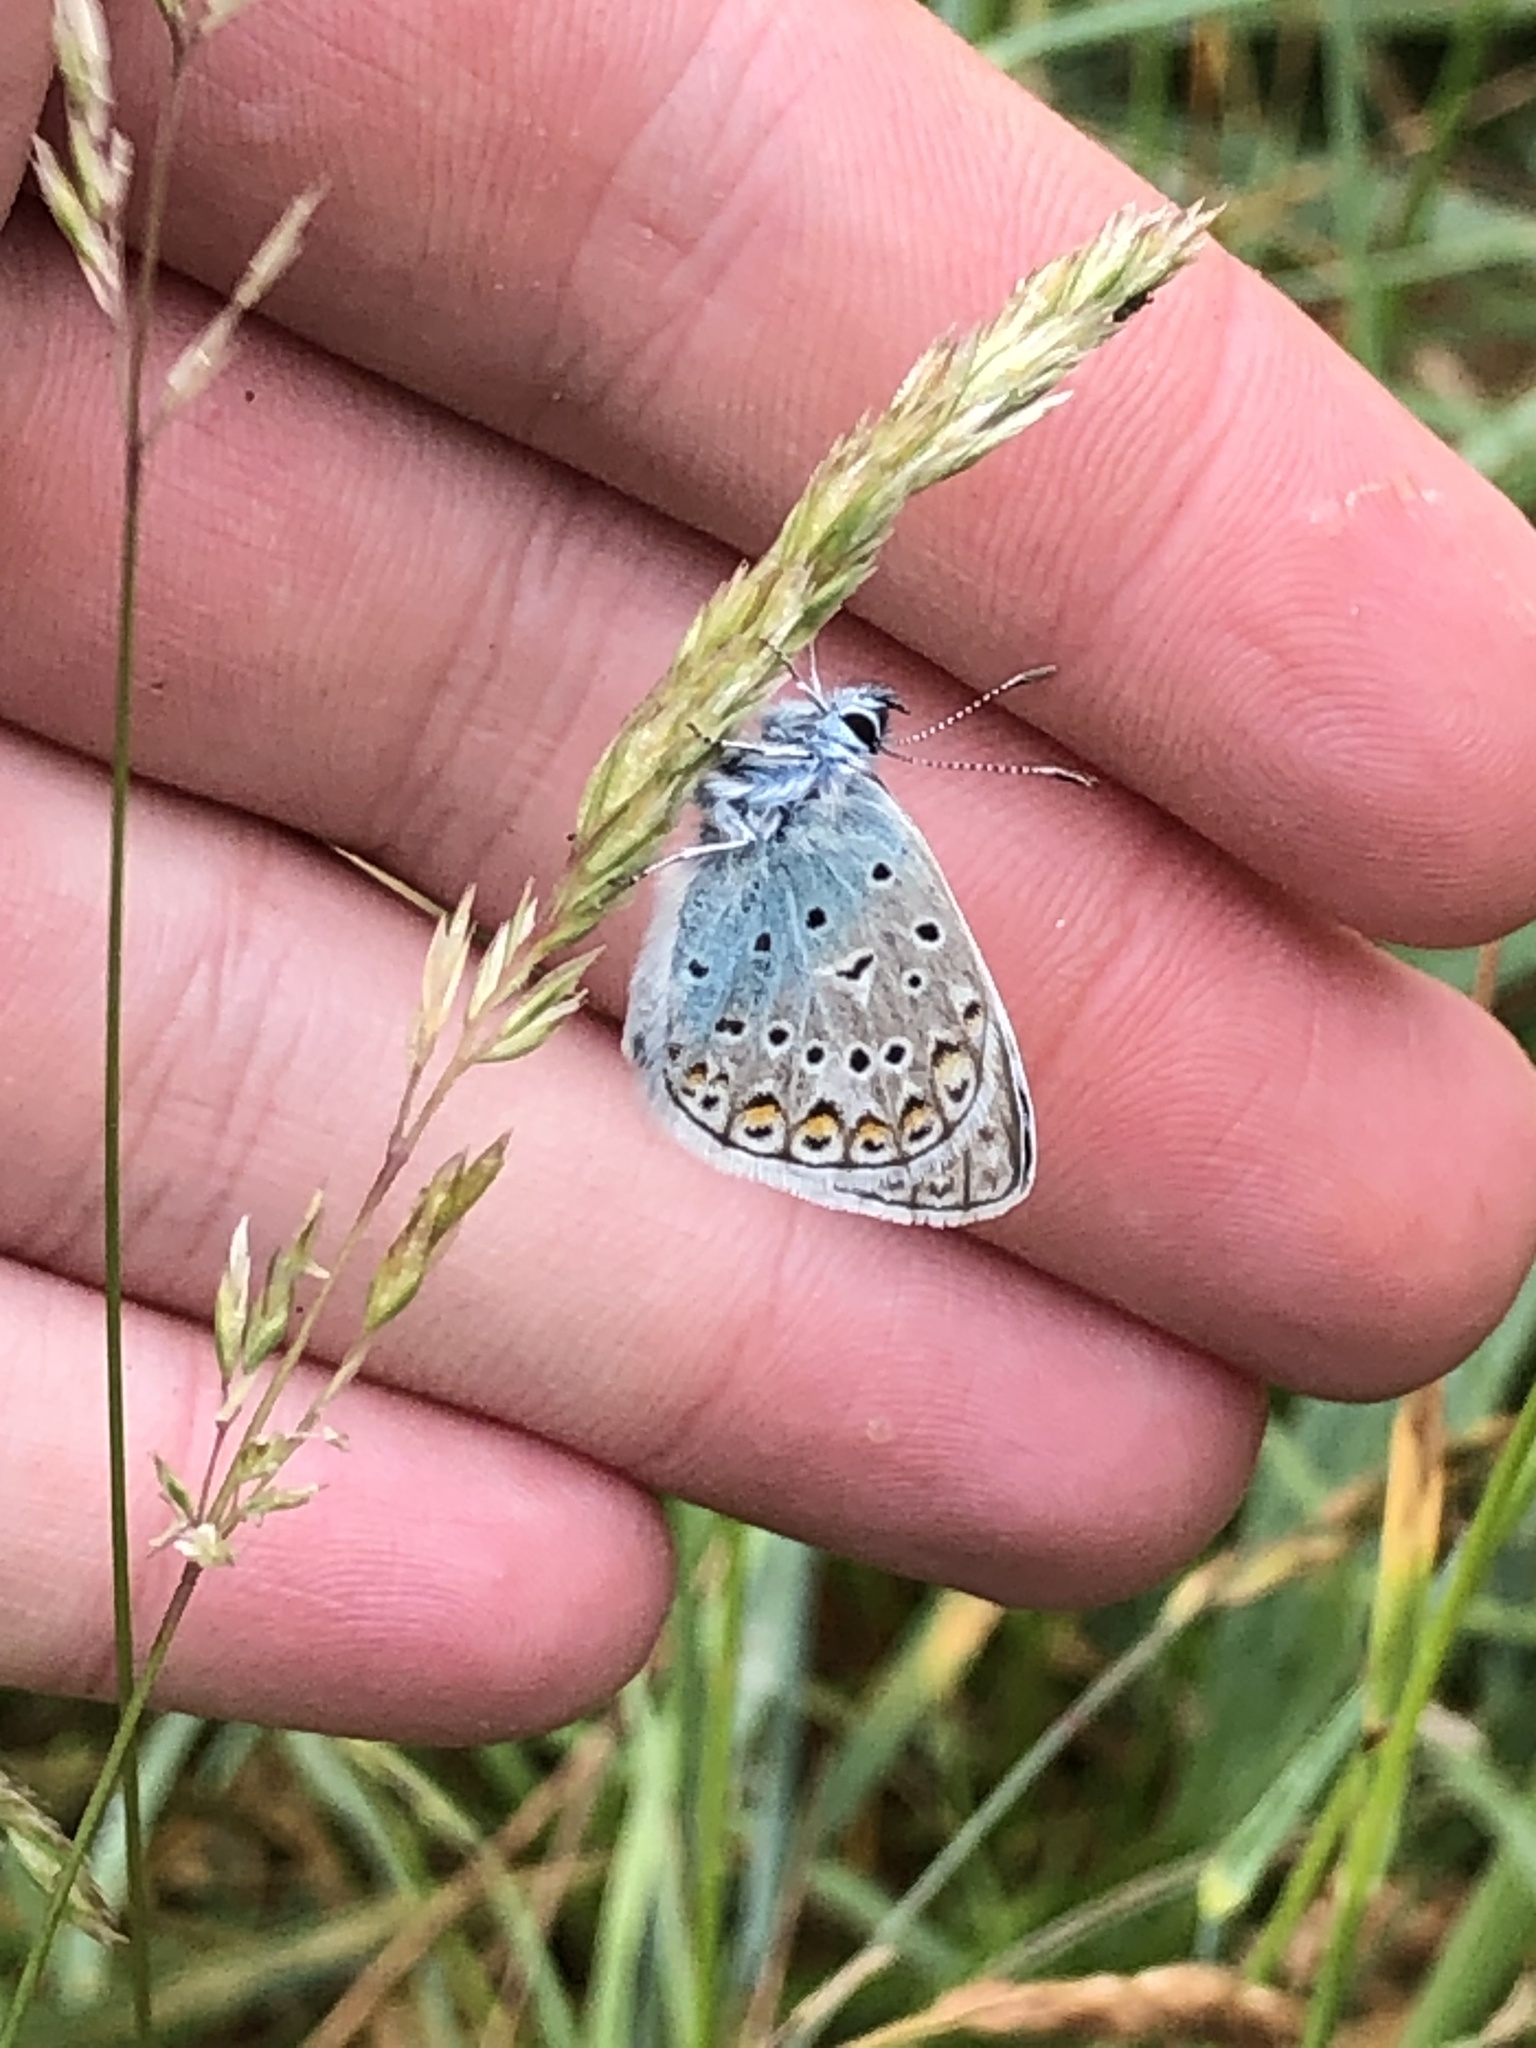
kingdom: Animalia
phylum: Arthropoda
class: Insecta
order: Lepidoptera
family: Lycaenidae
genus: Polyommatus
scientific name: Polyommatus icarus
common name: Common blue
